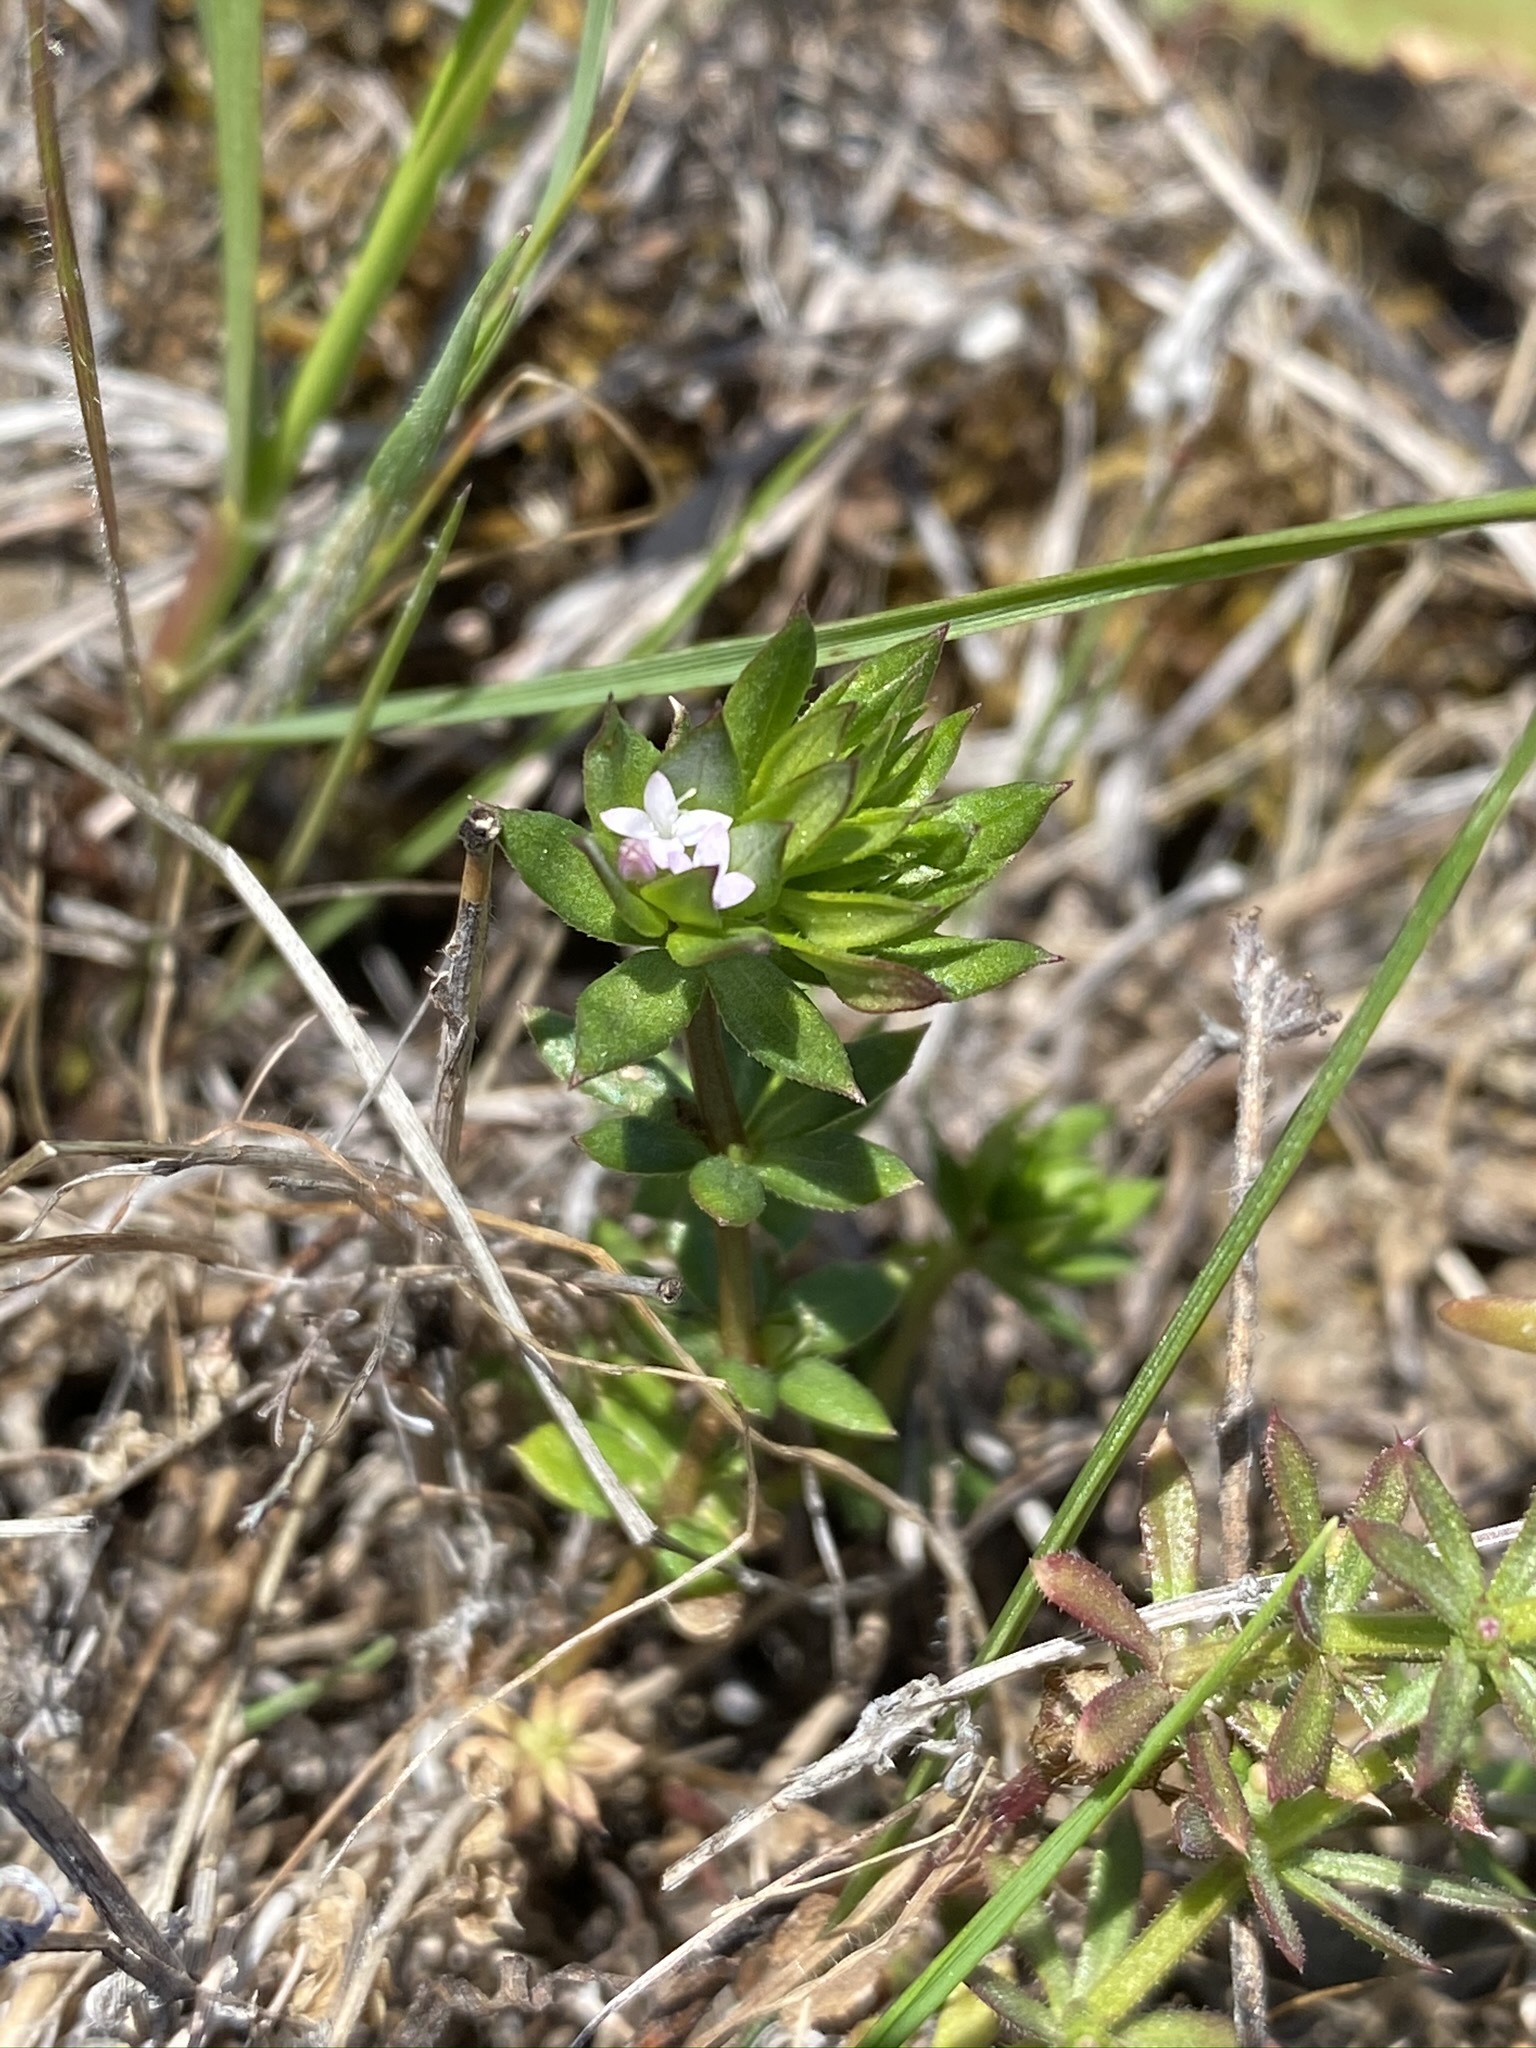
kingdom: Plantae
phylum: Tracheophyta
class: Magnoliopsida
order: Gentianales
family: Rubiaceae
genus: Sherardia
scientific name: Sherardia arvensis
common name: Field madder
